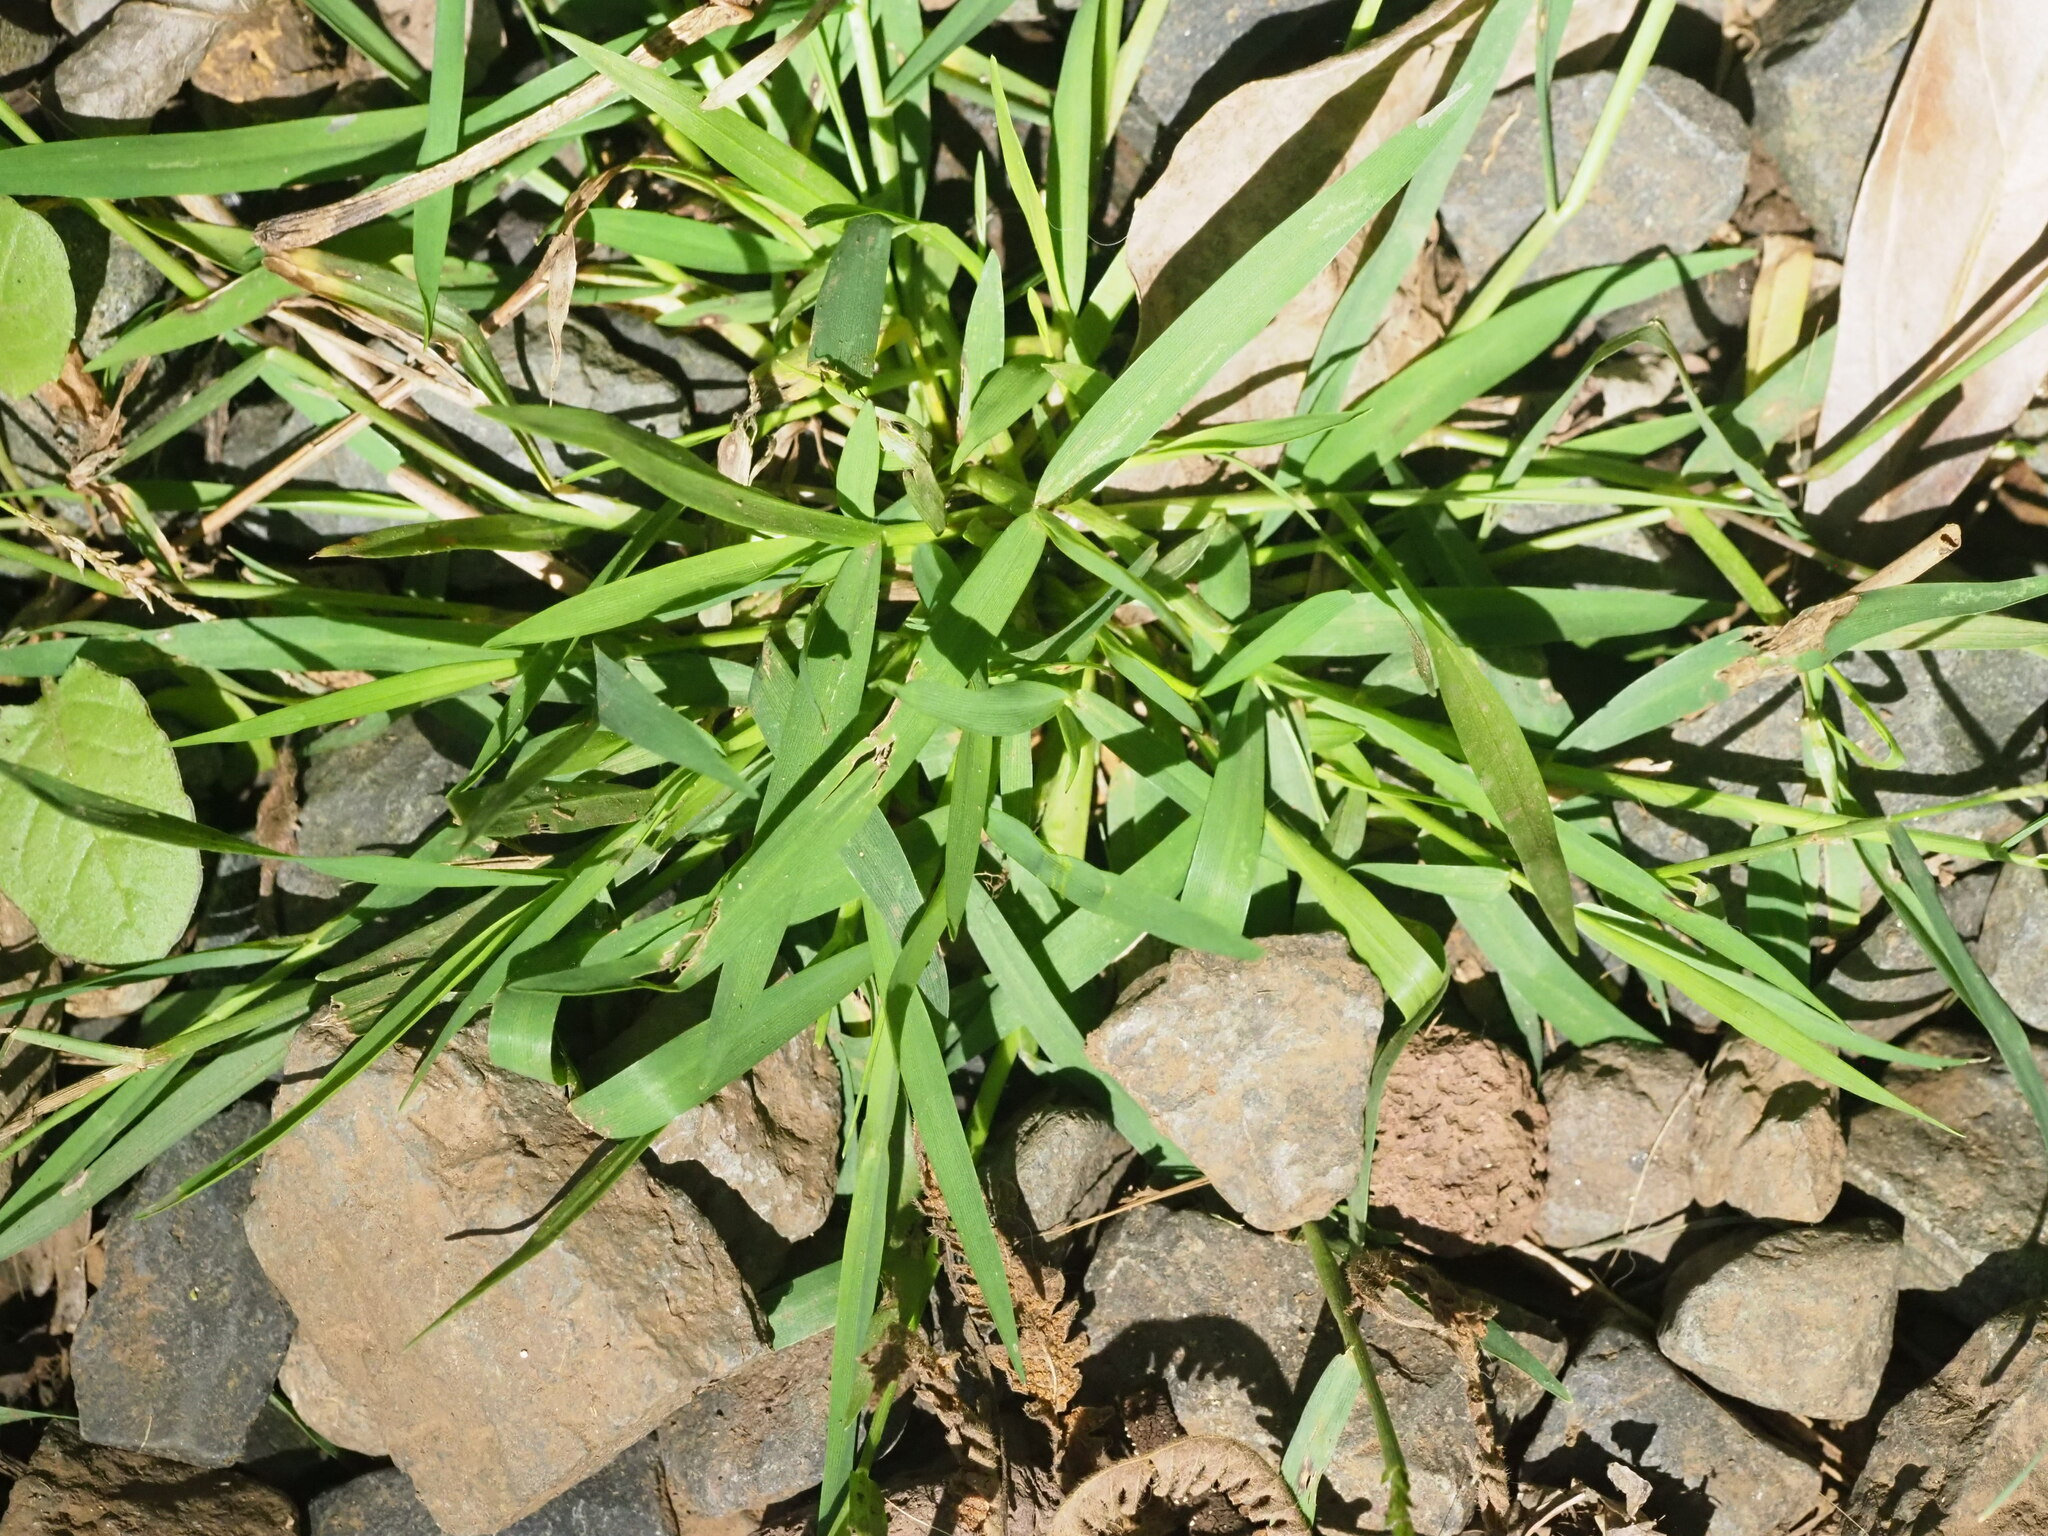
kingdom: Plantae
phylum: Tracheophyta
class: Liliopsida
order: Poales
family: Poaceae
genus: Sacciolepis
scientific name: Sacciolepis indica
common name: Glenwoodgrass
